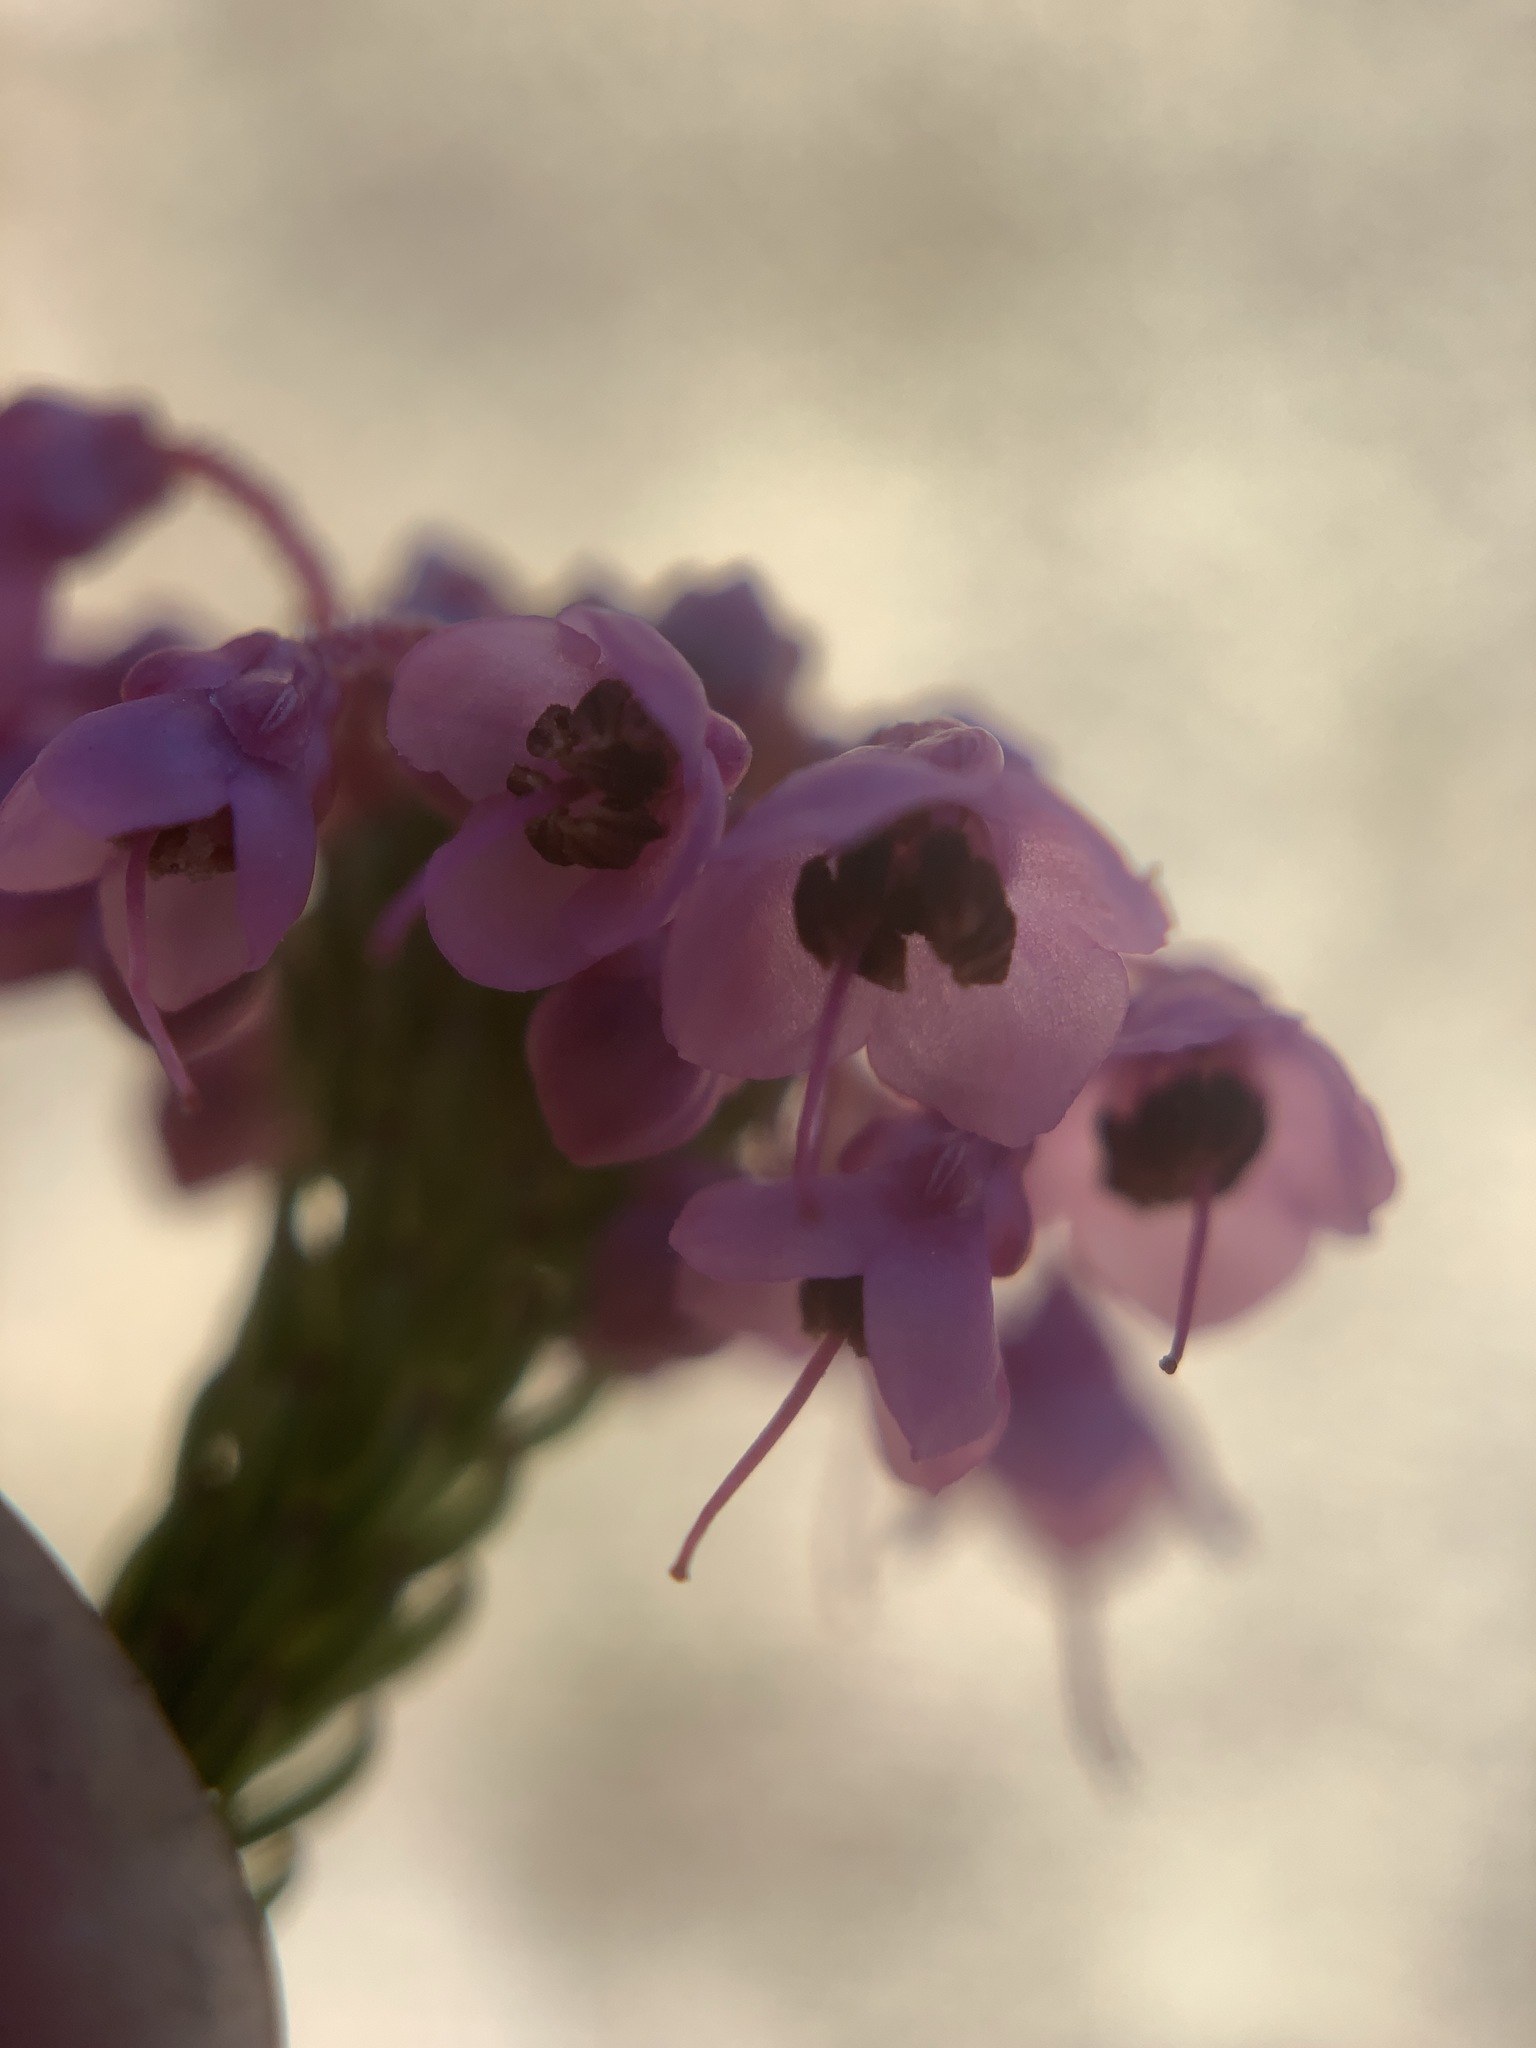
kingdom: Plantae
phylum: Tracheophyta
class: Magnoliopsida
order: Ericales
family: Ericaceae
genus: Erica
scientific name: Erica seriphiifolia
